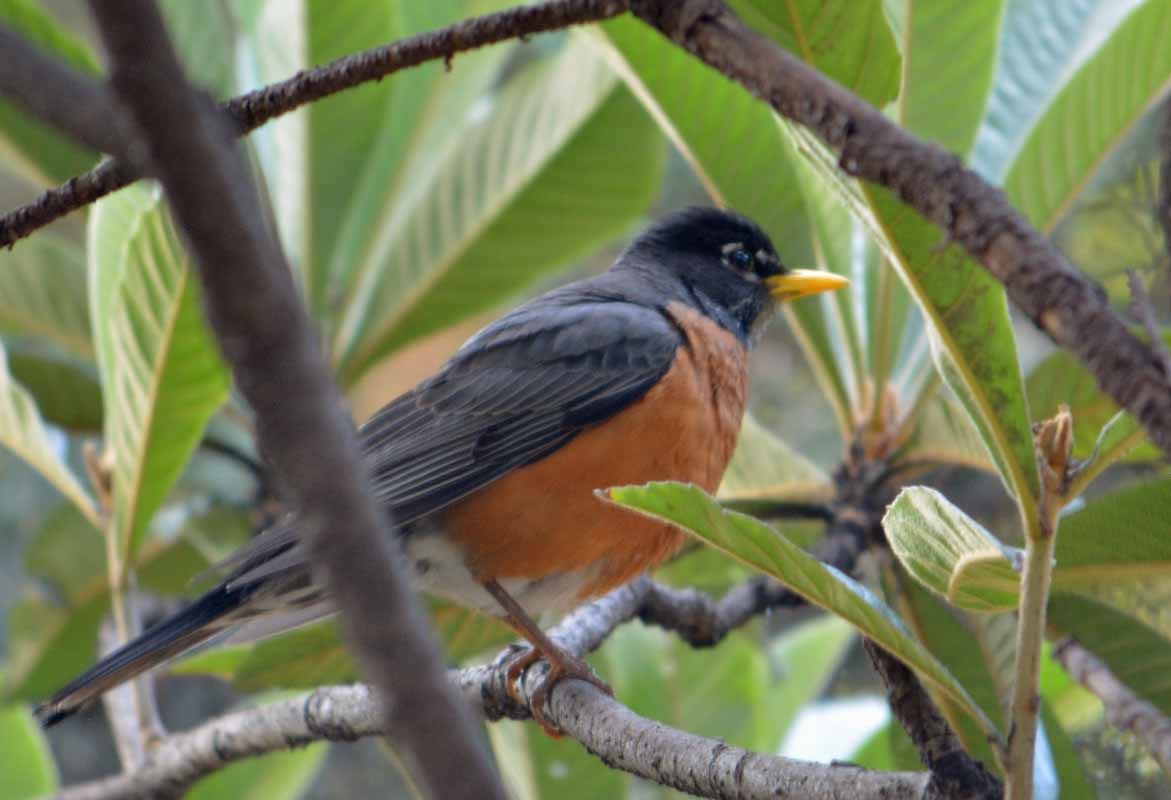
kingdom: Animalia
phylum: Chordata
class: Aves
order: Passeriformes
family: Turdidae
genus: Turdus
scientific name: Turdus migratorius
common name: American robin
